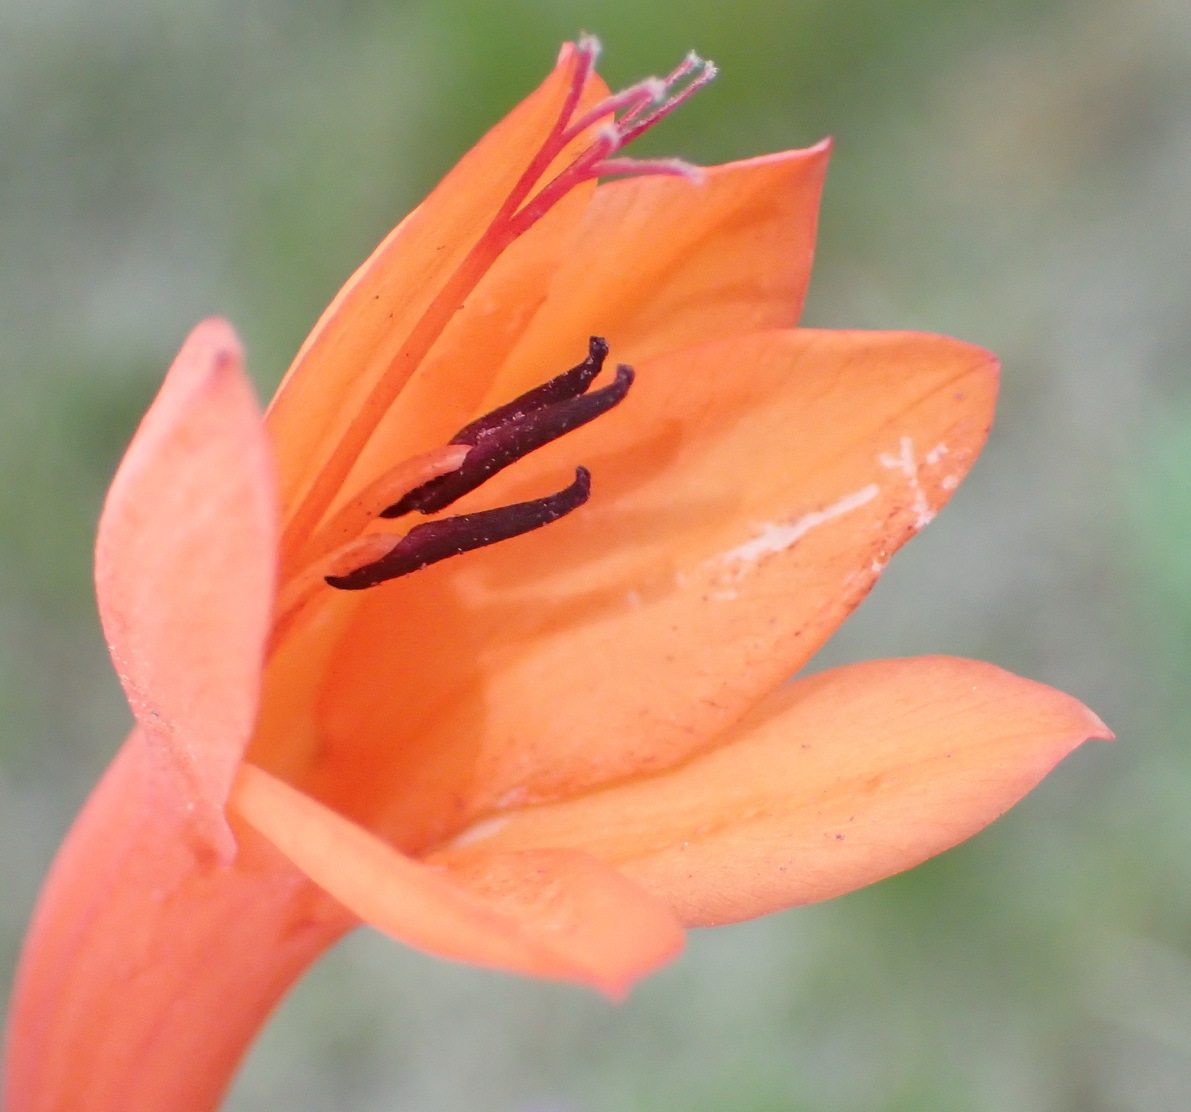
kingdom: Plantae
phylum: Tracheophyta
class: Liliopsida
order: Asparagales
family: Iridaceae
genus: Watsonia
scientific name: Watsonia pillansii
